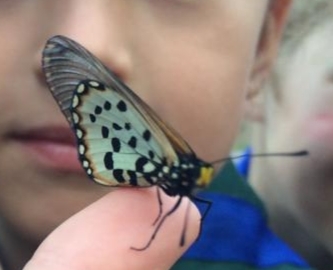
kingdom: Animalia
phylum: Arthropoda
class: Insecta
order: Lepidoptera
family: Nymphalidae
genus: Acraea
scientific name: Acraea horta
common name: Garden acraea
